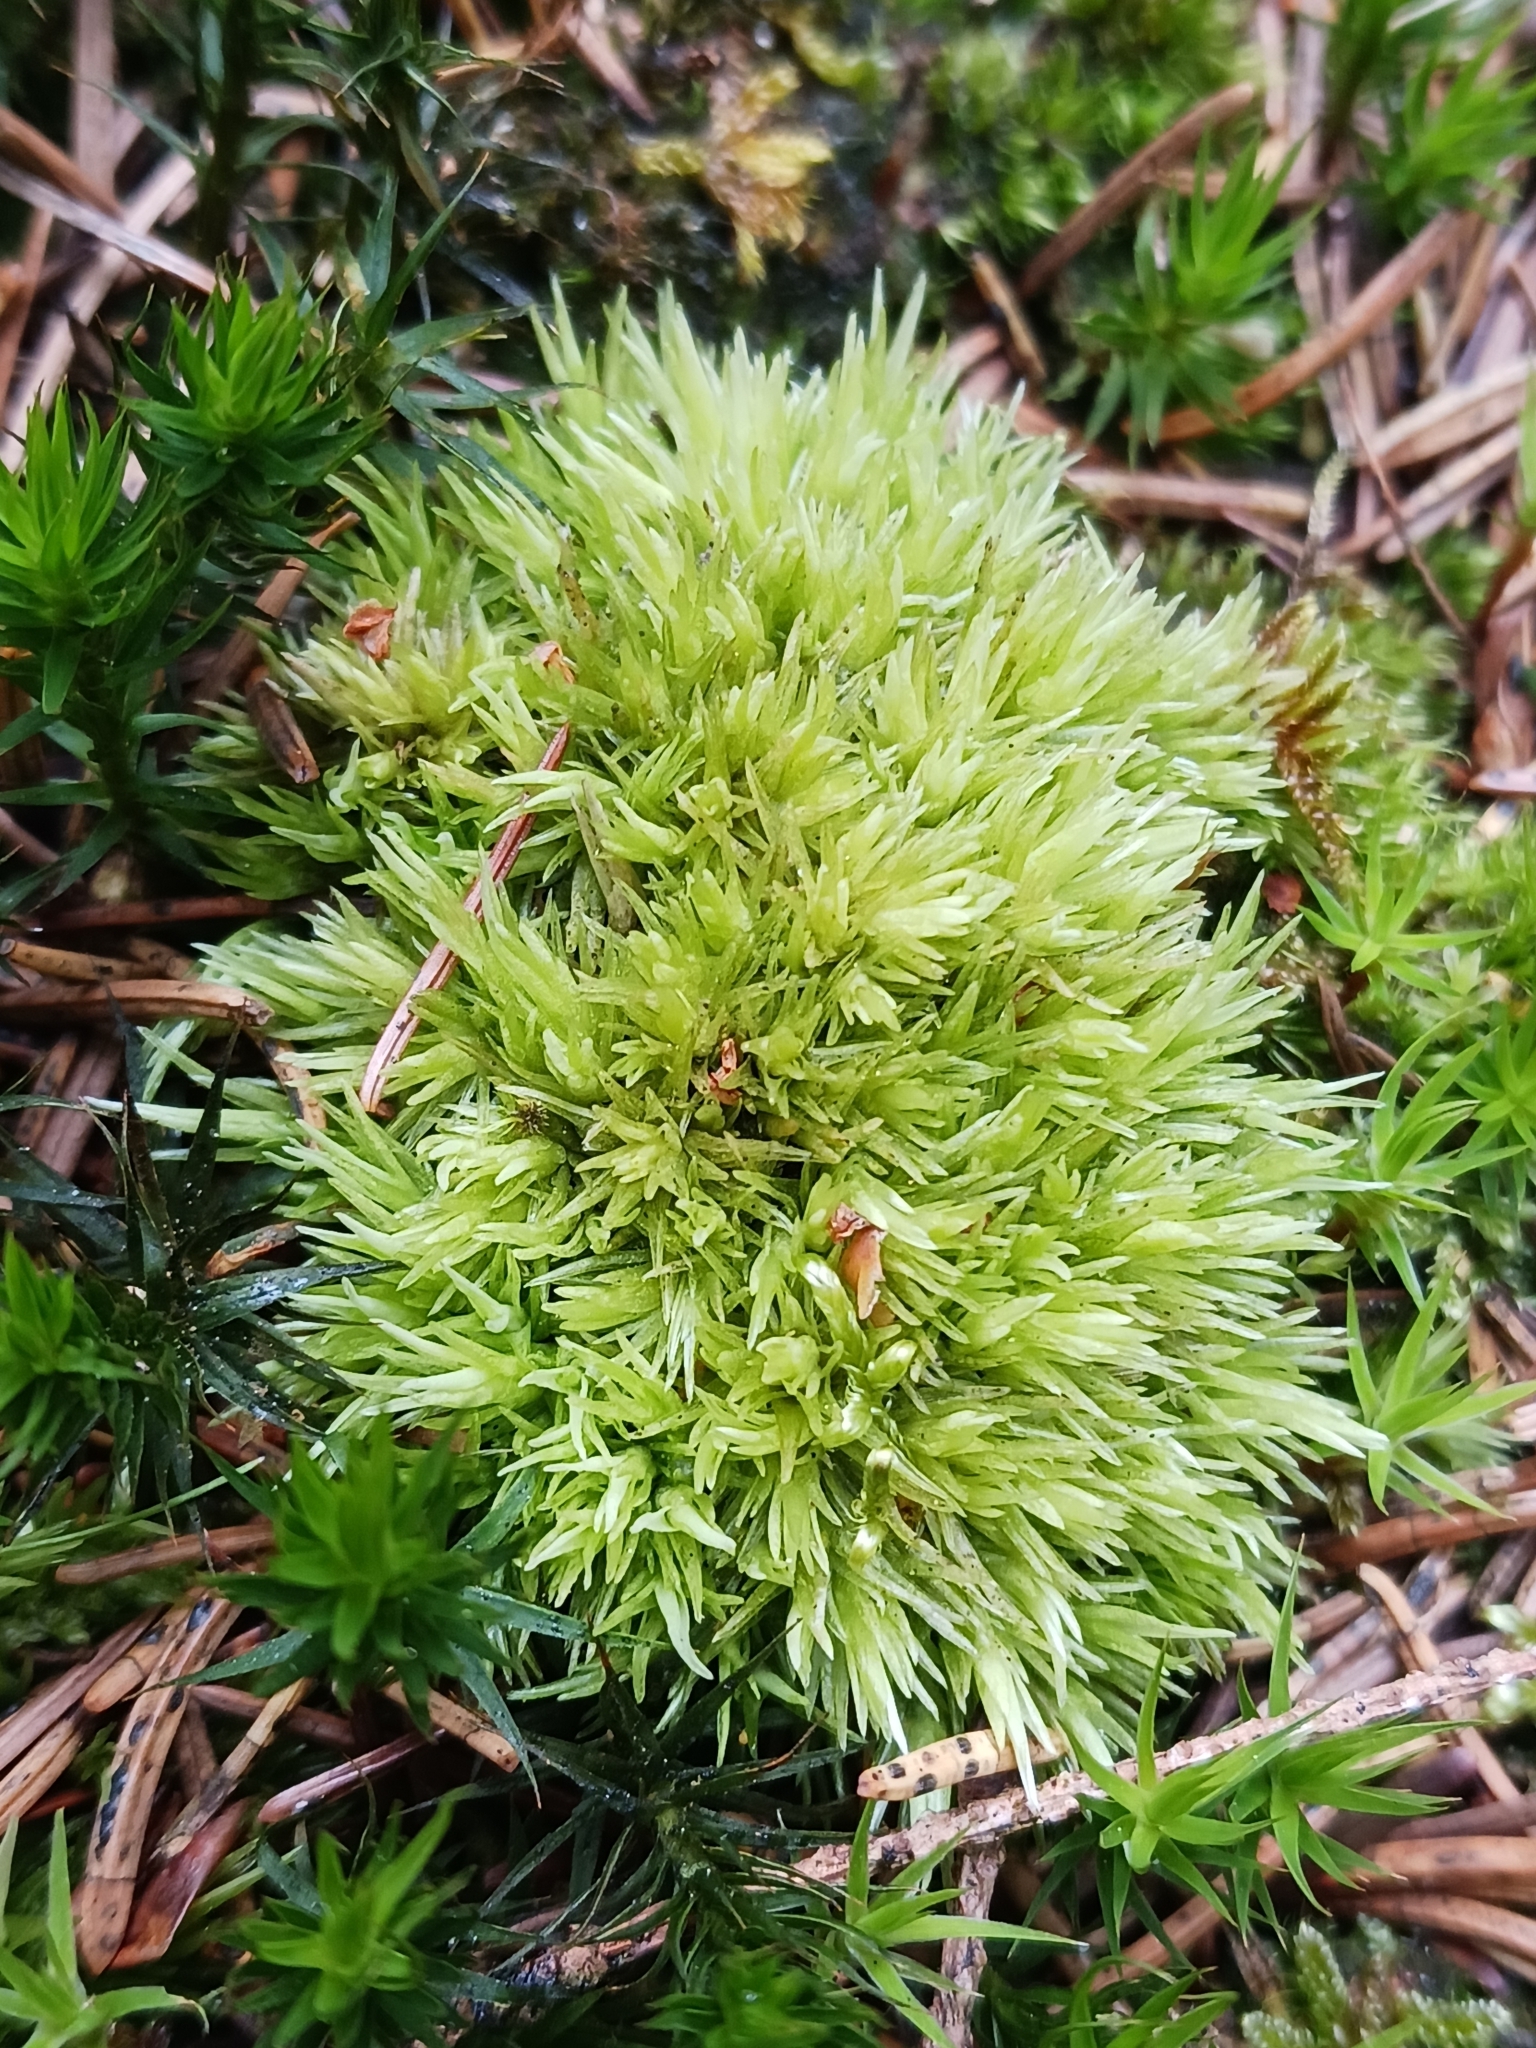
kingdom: Plantae
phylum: Bryophyta
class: Bryopsida
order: Dicranales
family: Leucobryaceae
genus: Leucobryum
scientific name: Leucobryum glaucum
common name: Large white-moss
